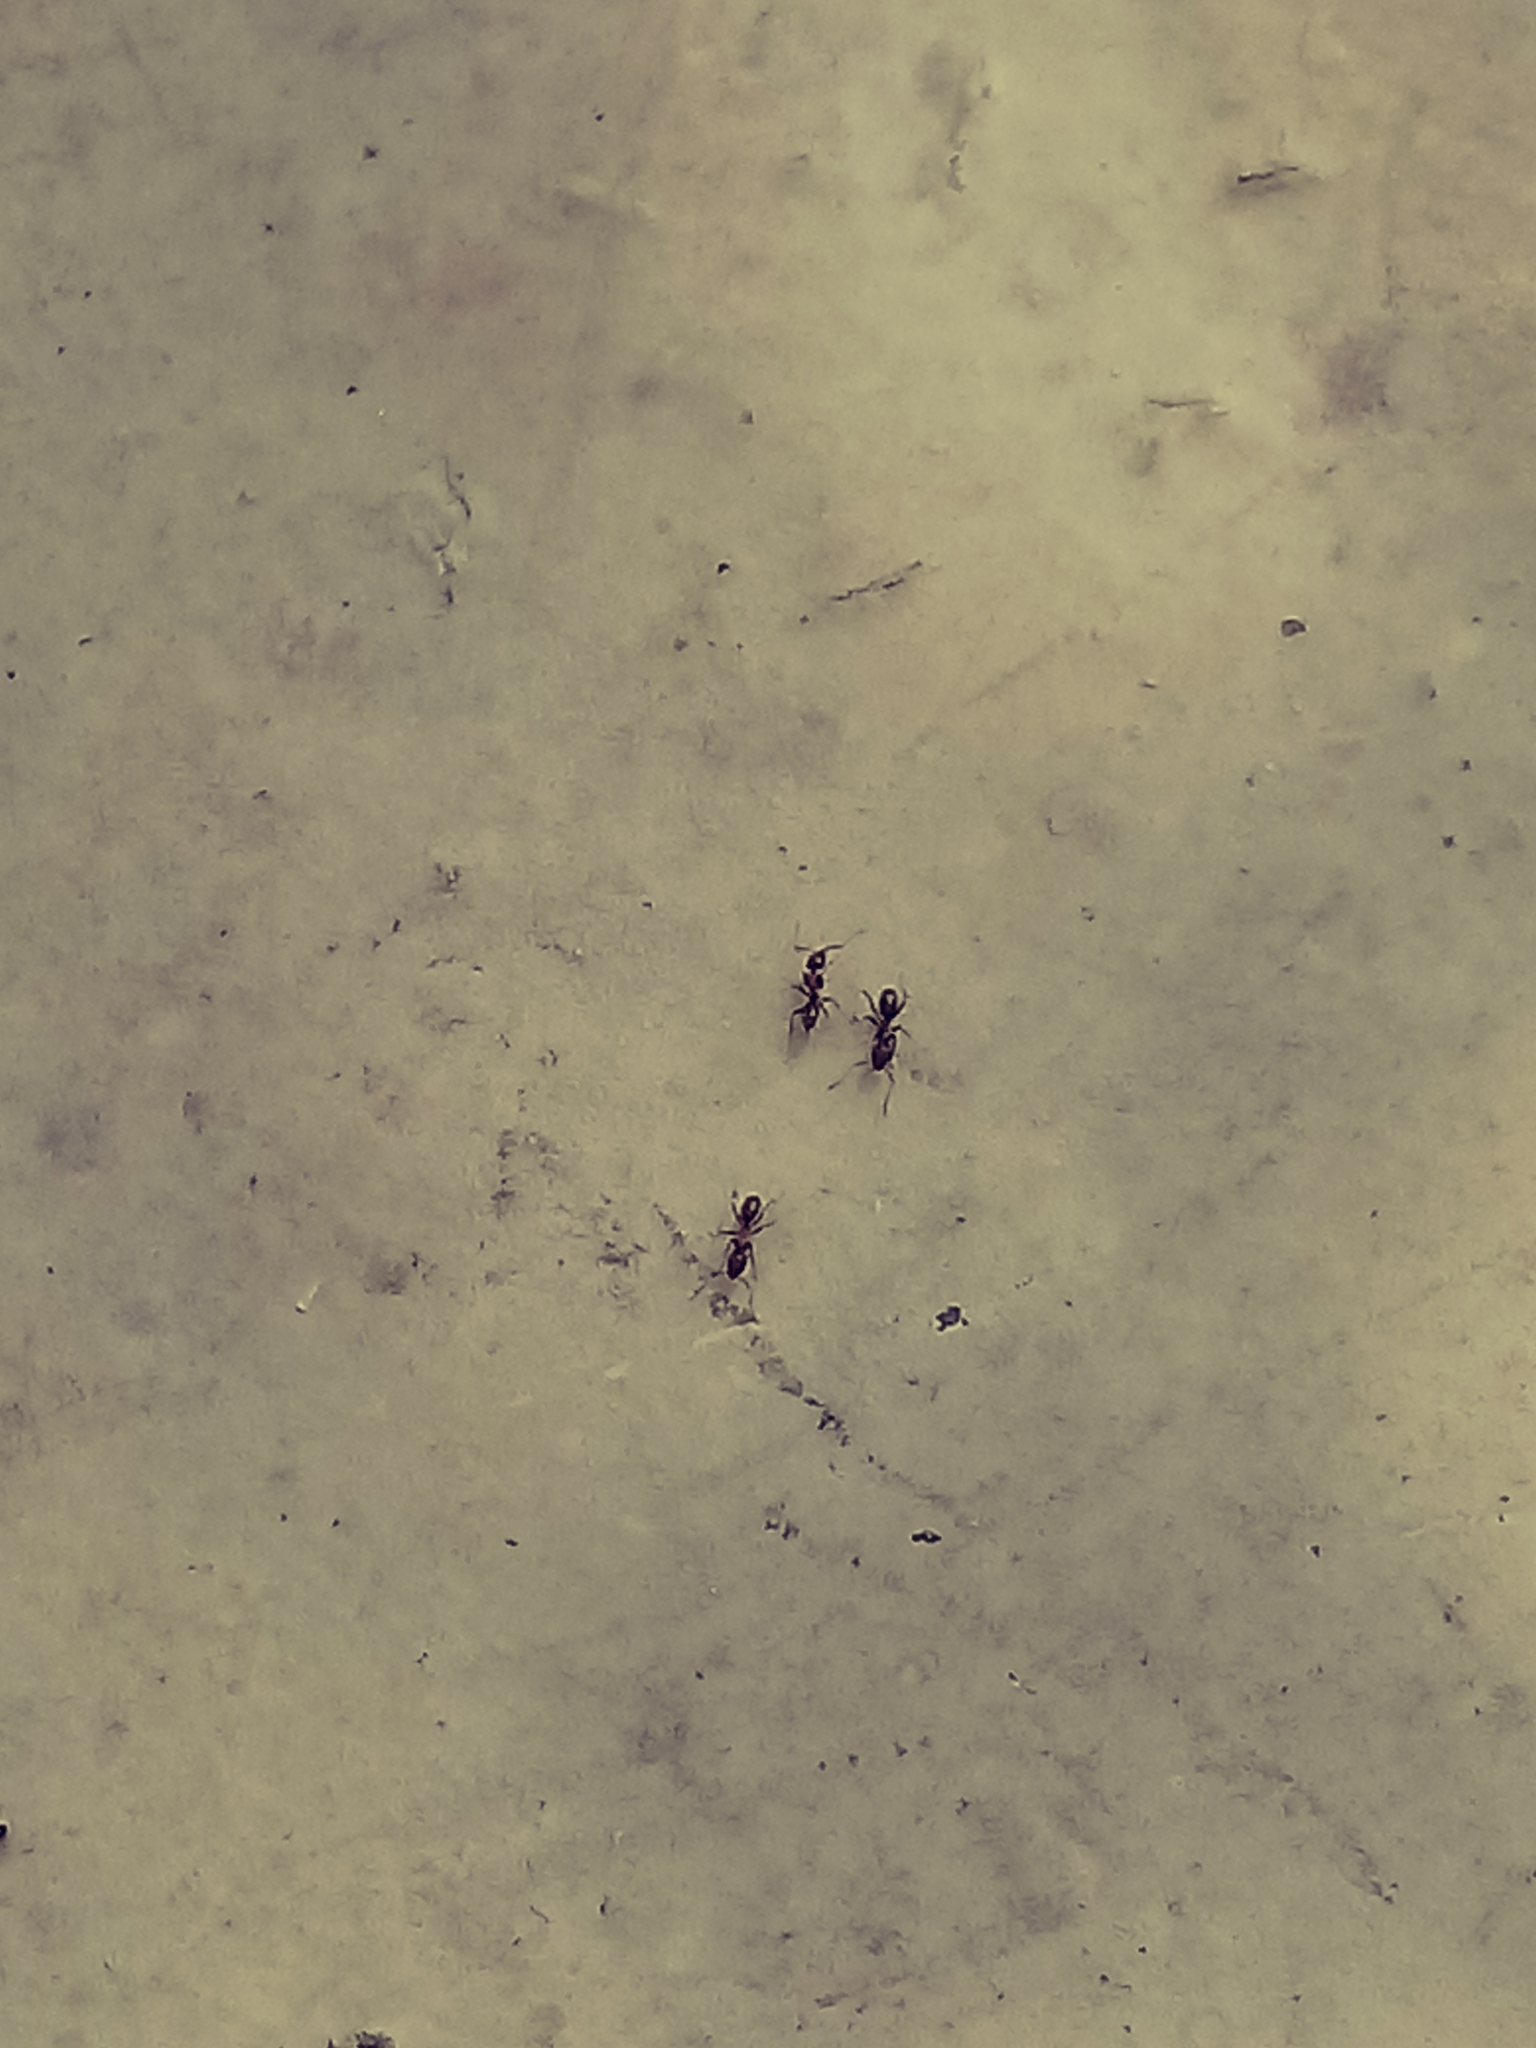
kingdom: Animalia
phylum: Arthropoda
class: Insecta
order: Hymenoptera
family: Formicidae
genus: Linepithema
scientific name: Linepithema humile
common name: Argentine ant
